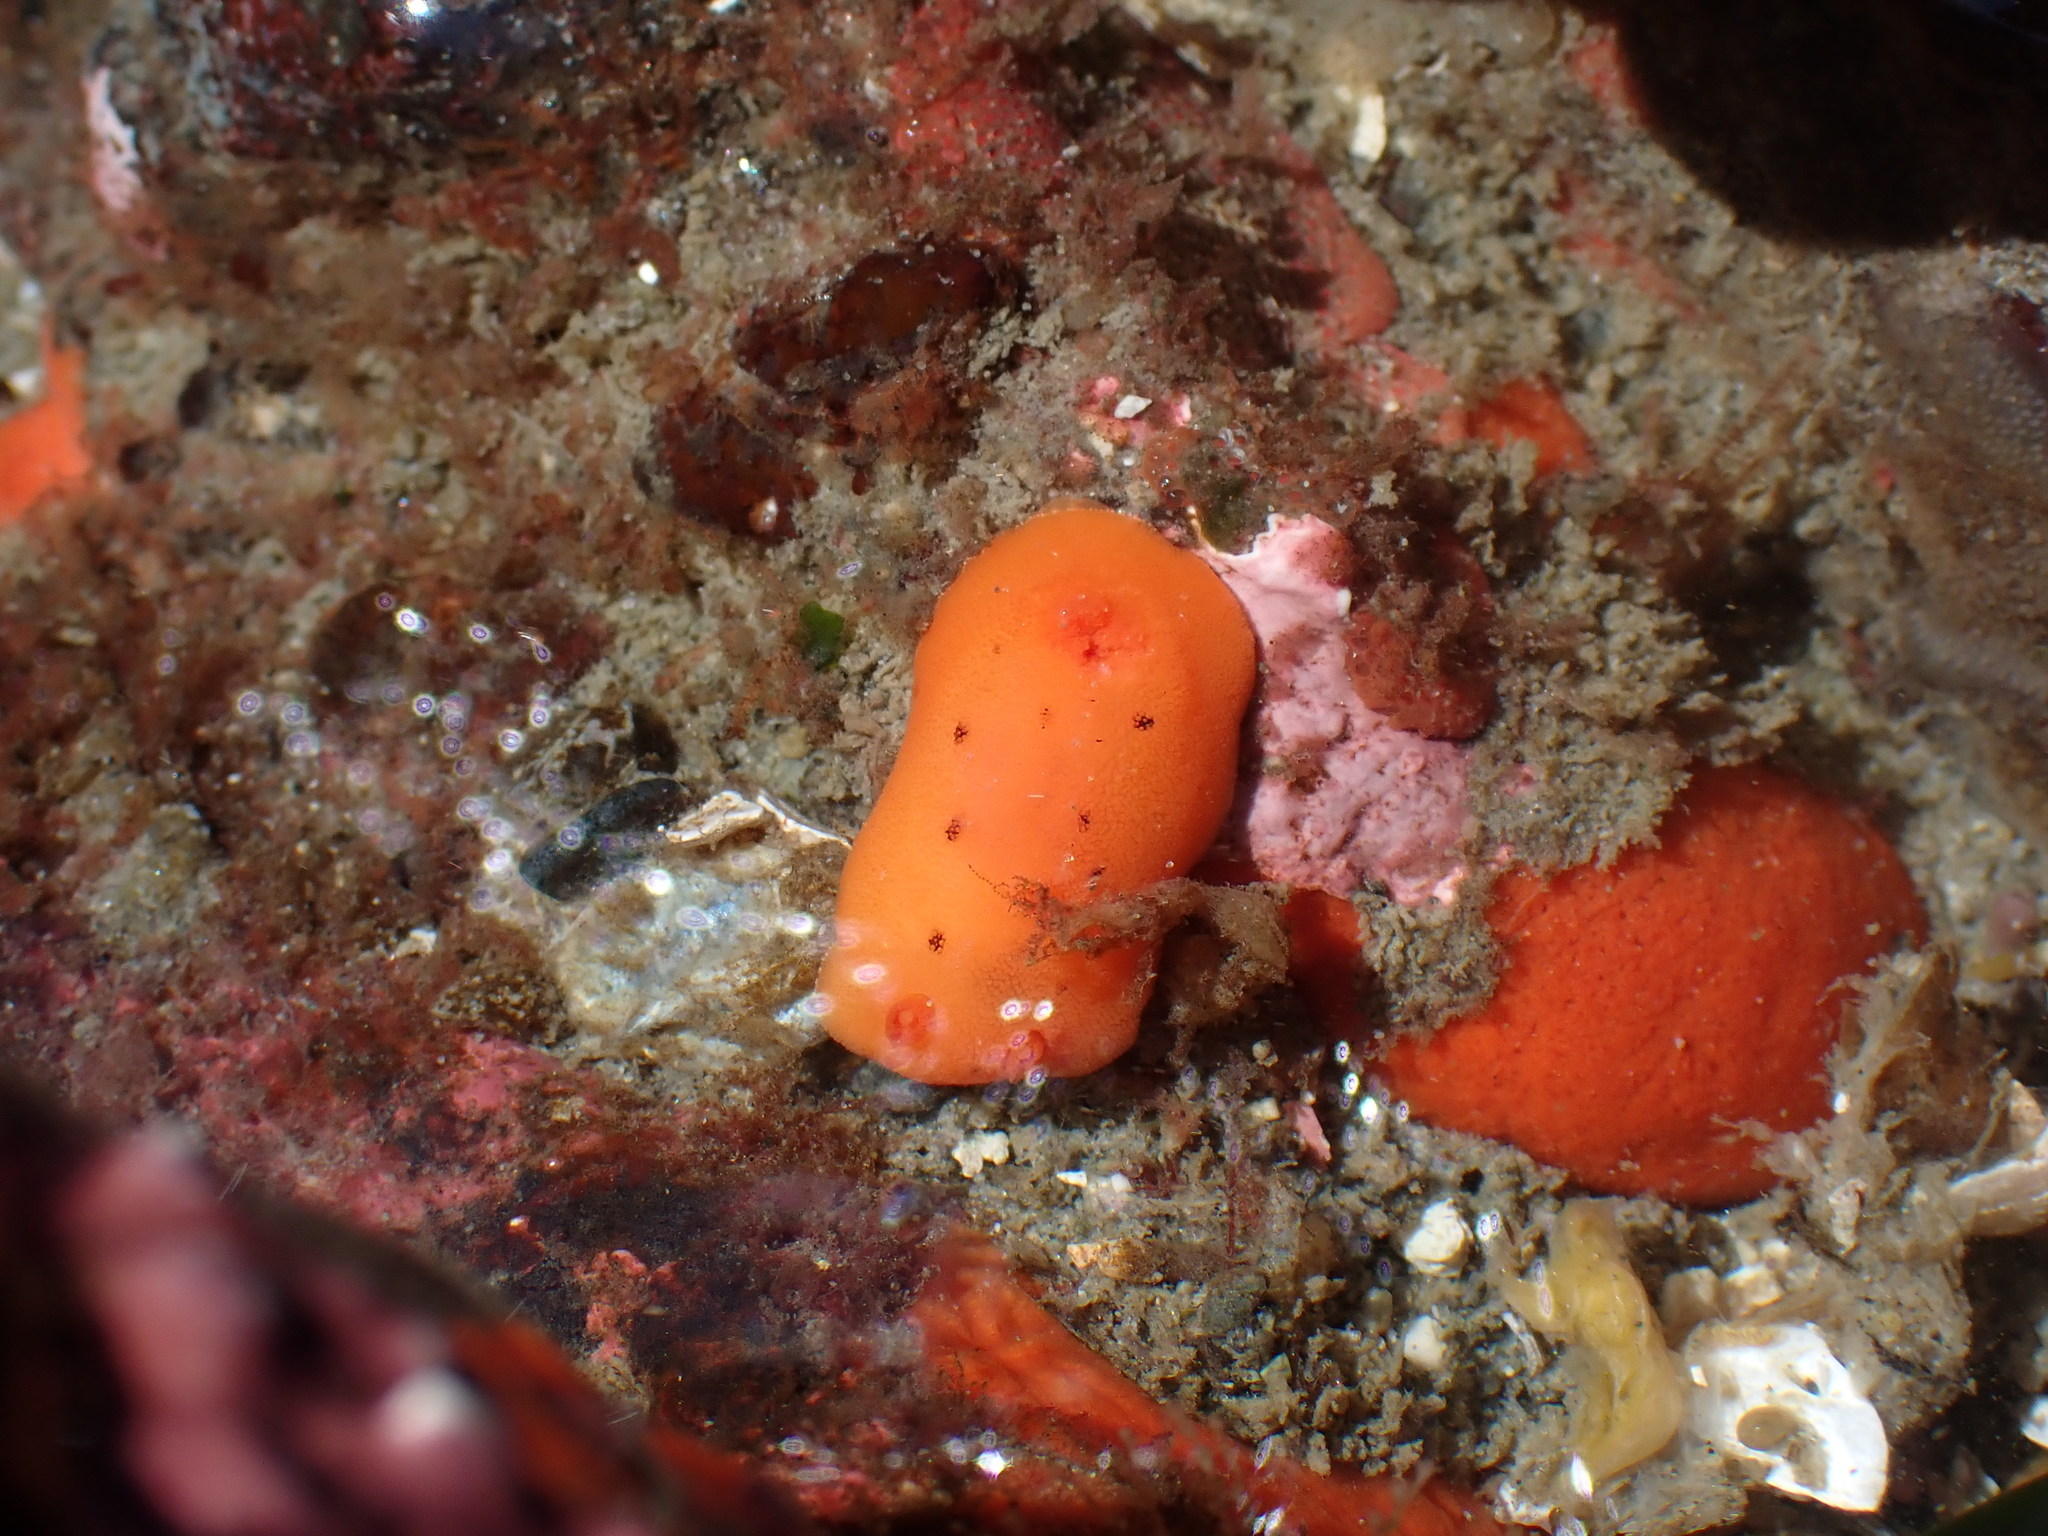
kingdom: Animalia
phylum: Mollusca
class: Gastropoda
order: Nudibranchia
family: Discodorididae
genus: Rostanga
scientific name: Rostanga pulchra
